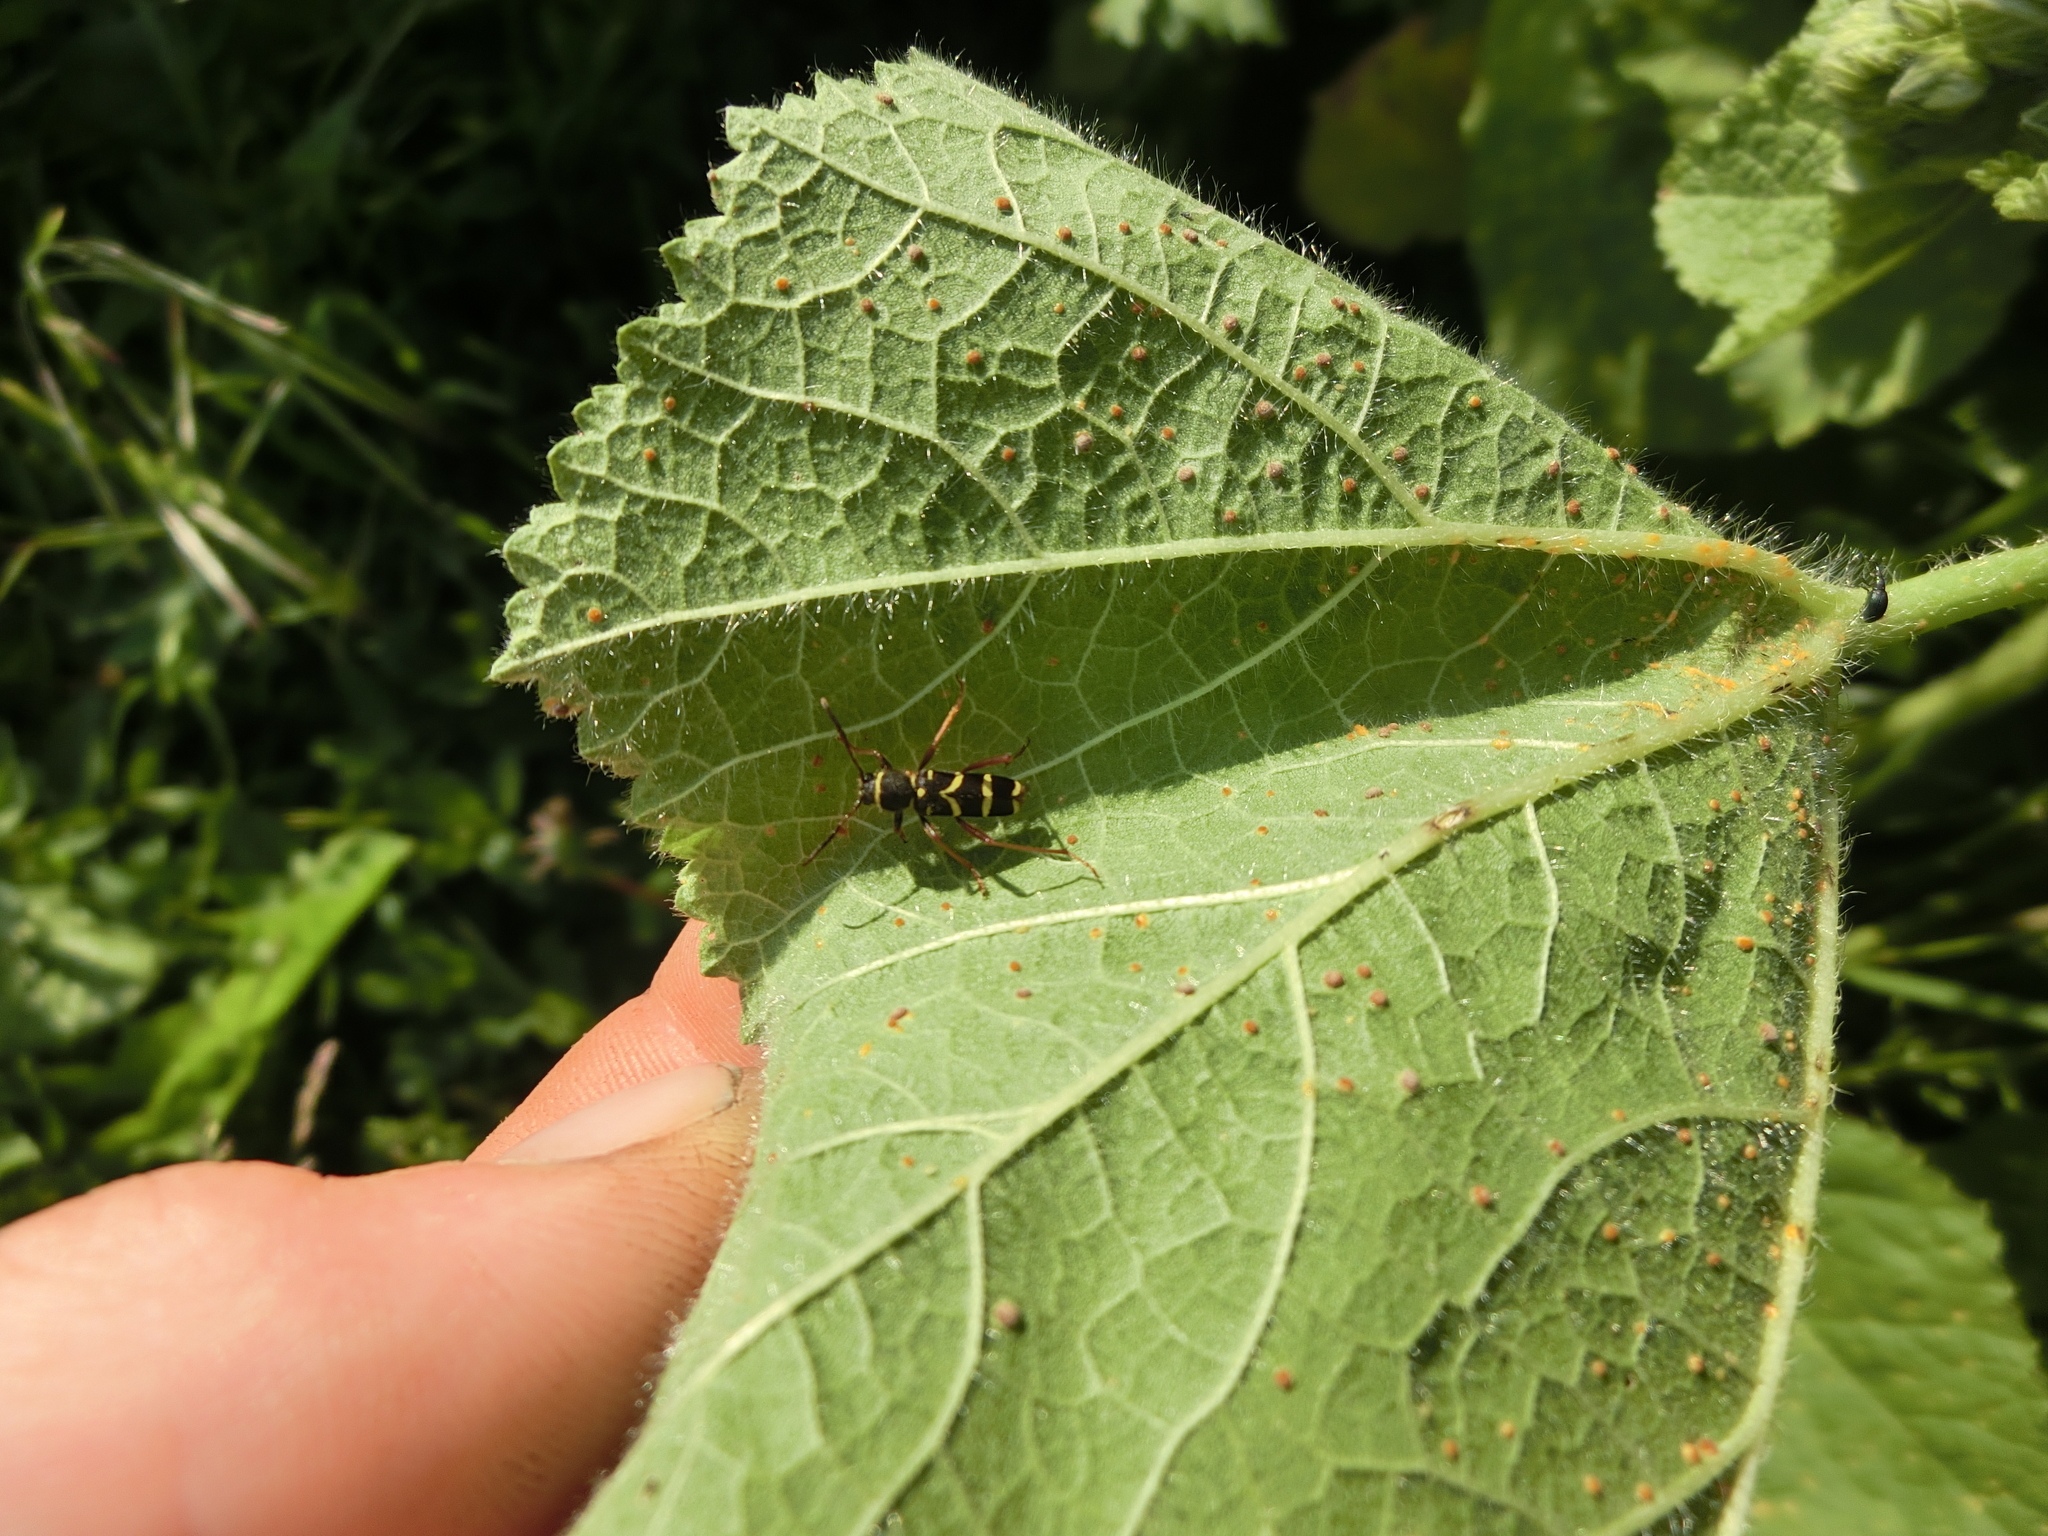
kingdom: Animalia
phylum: Arthropoda
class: Insecta
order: Coleoptera
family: Cerambycidae
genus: Clytus
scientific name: Clytus arietis
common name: Wasp beetle
